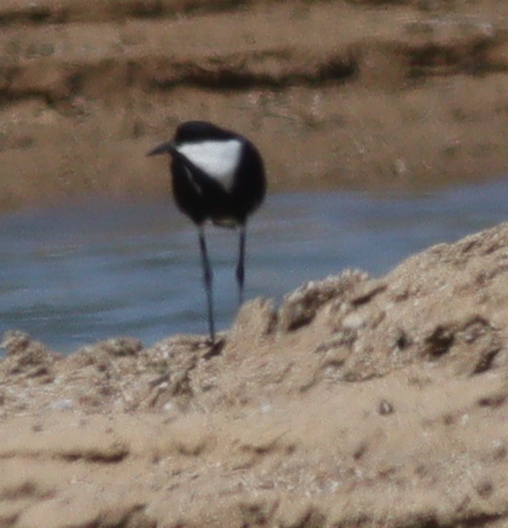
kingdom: Animalia
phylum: Chordata
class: Aves
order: Charadriiformes
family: Charadriidae
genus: Vanellus
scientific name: Vanellus spinosus
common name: Spur-winged lapwing
